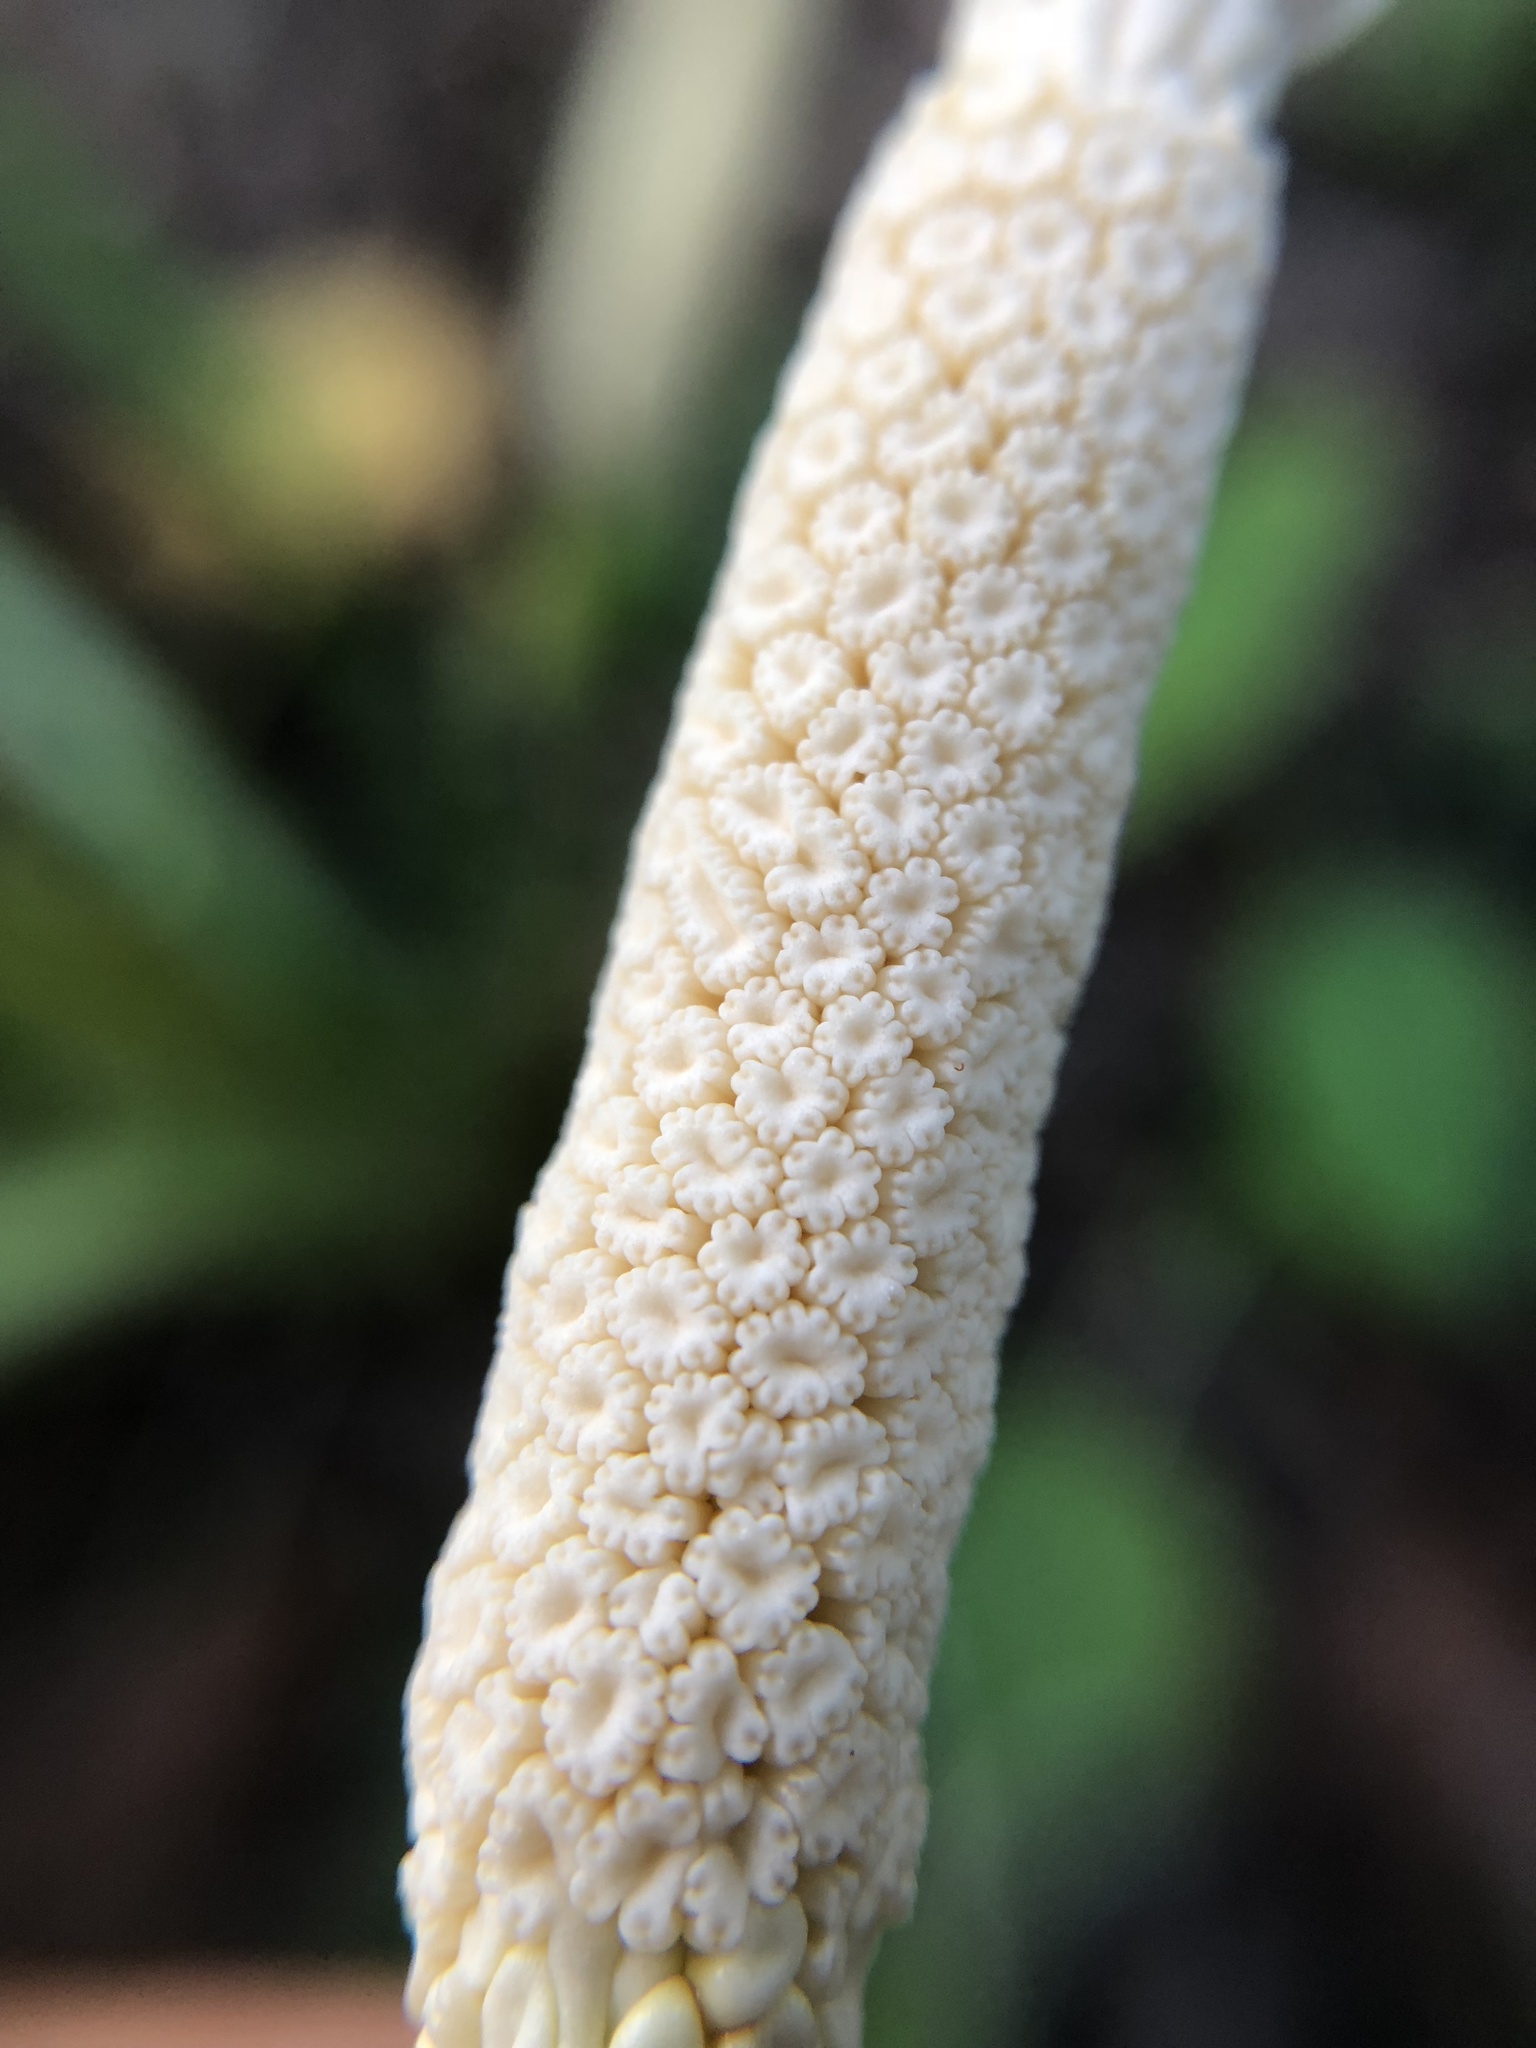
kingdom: Plantae
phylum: Tracheophyta
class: Liliopsida
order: Alismatales
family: Araceae
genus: Colocasia
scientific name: Colocasia esculenta
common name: Taro
